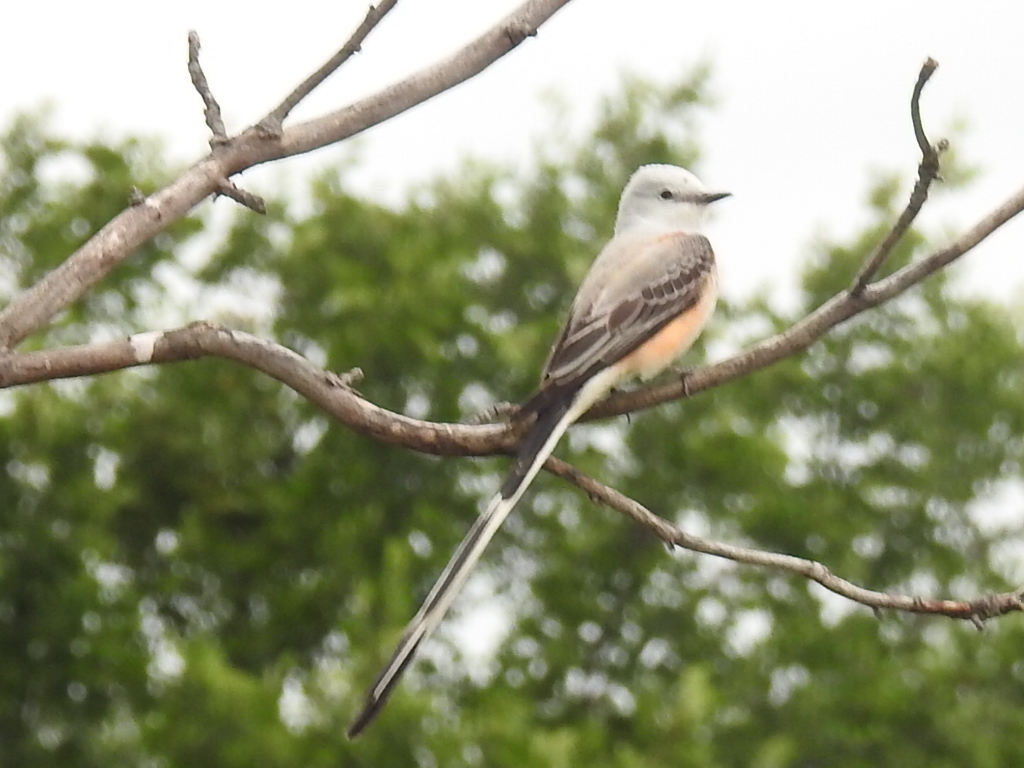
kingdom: Animalia
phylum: Chordata
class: Aves
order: Passeriformes
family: Tyrannidae
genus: Tyrannus
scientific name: Tyrannus forficatus
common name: Scissor-tailed flycatcher
